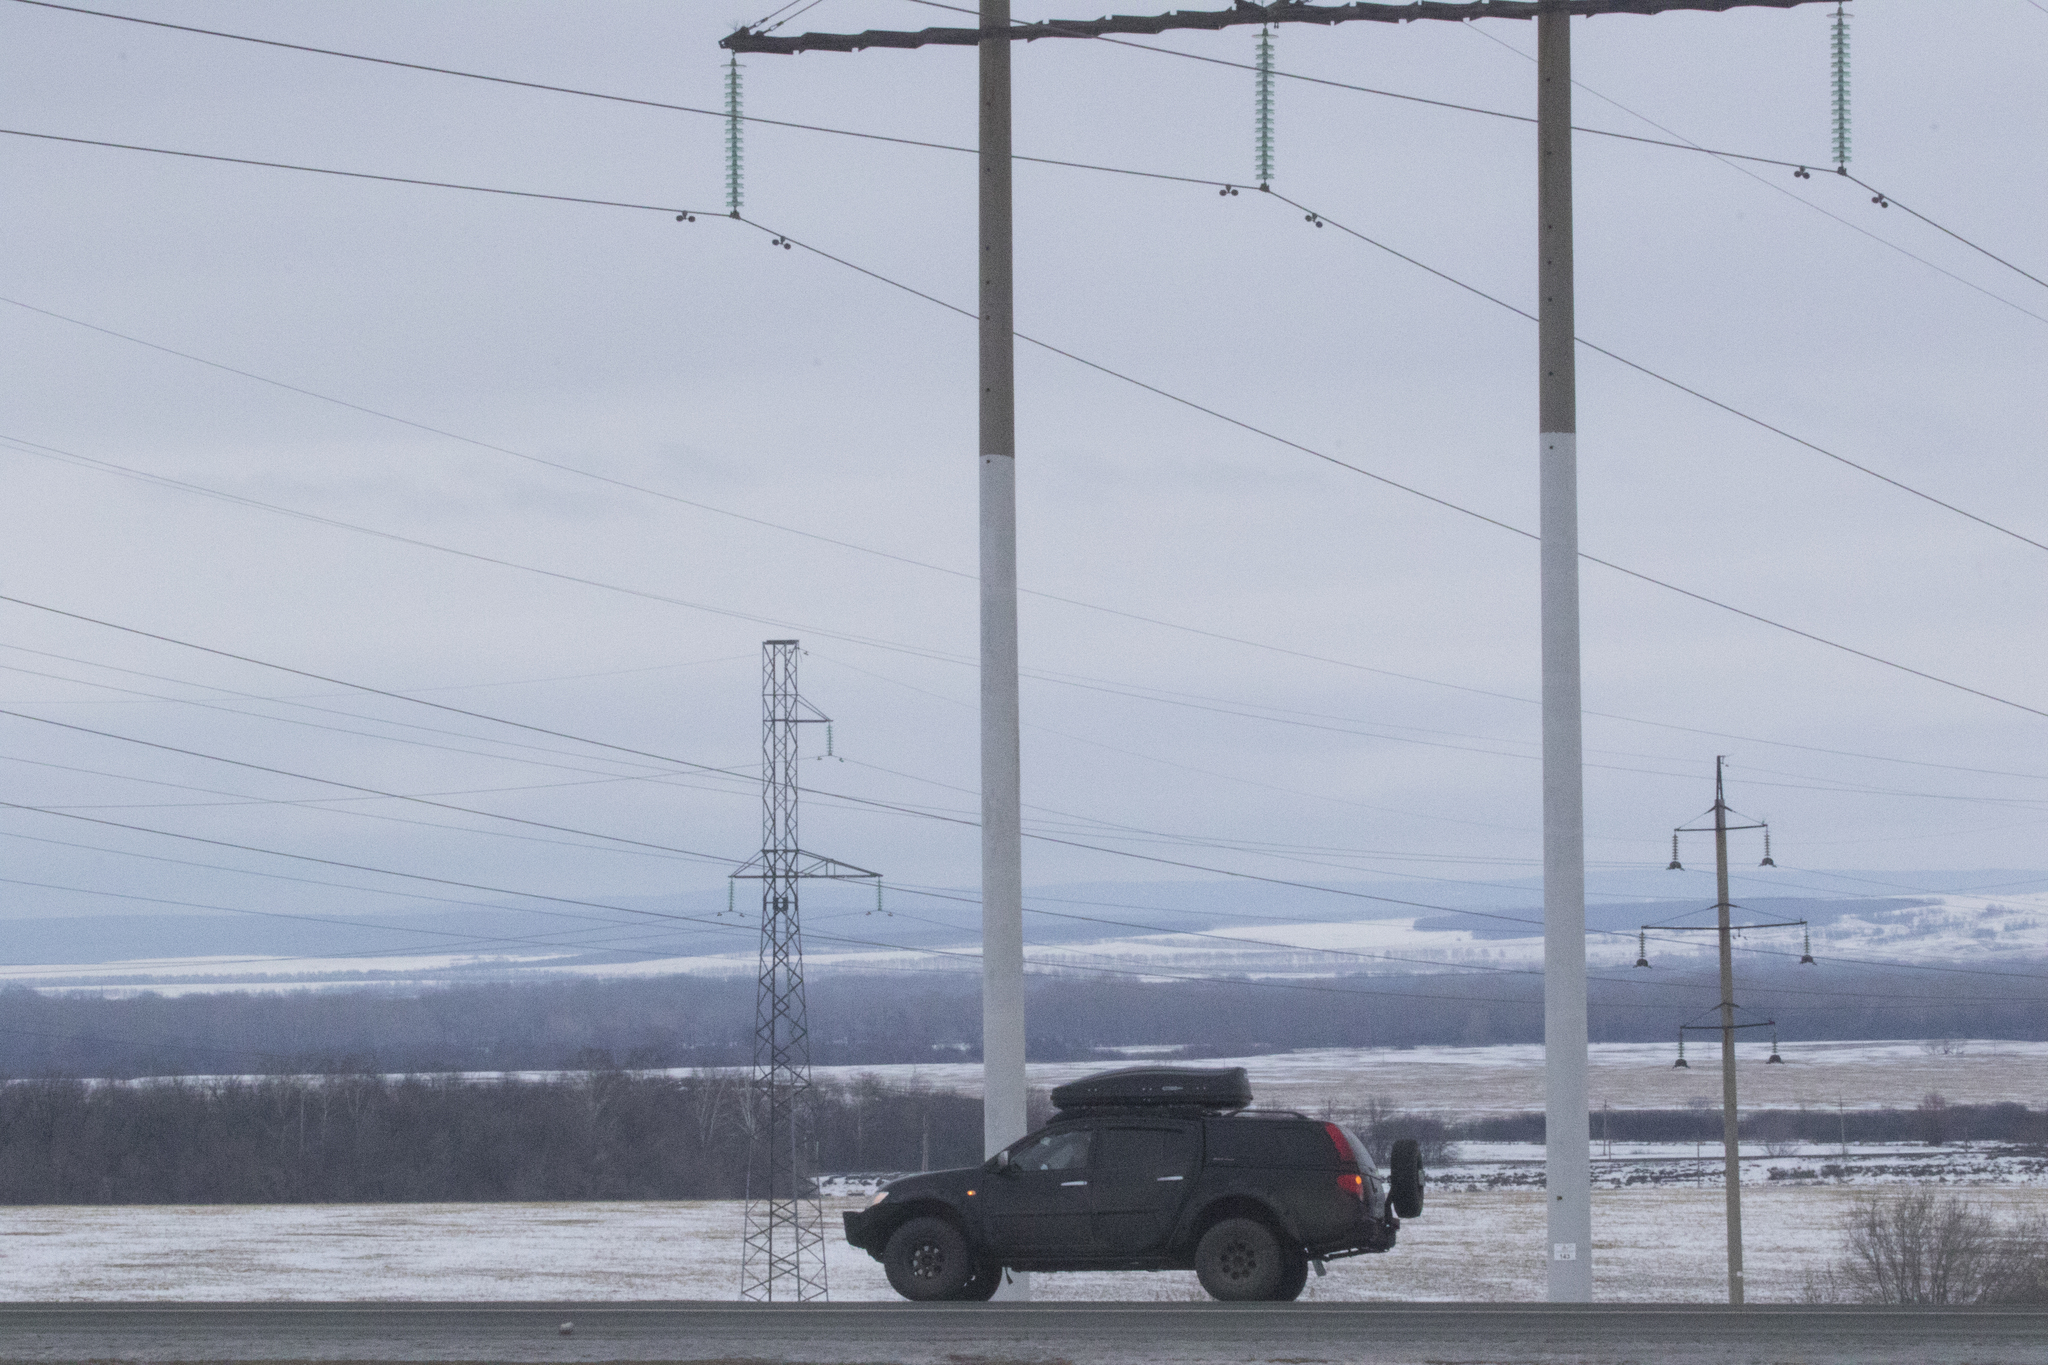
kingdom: Animalia
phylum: Chordata
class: Aves
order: Passeriformes
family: Corvidae
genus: Corvus
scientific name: Corvus corax
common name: Common raven
